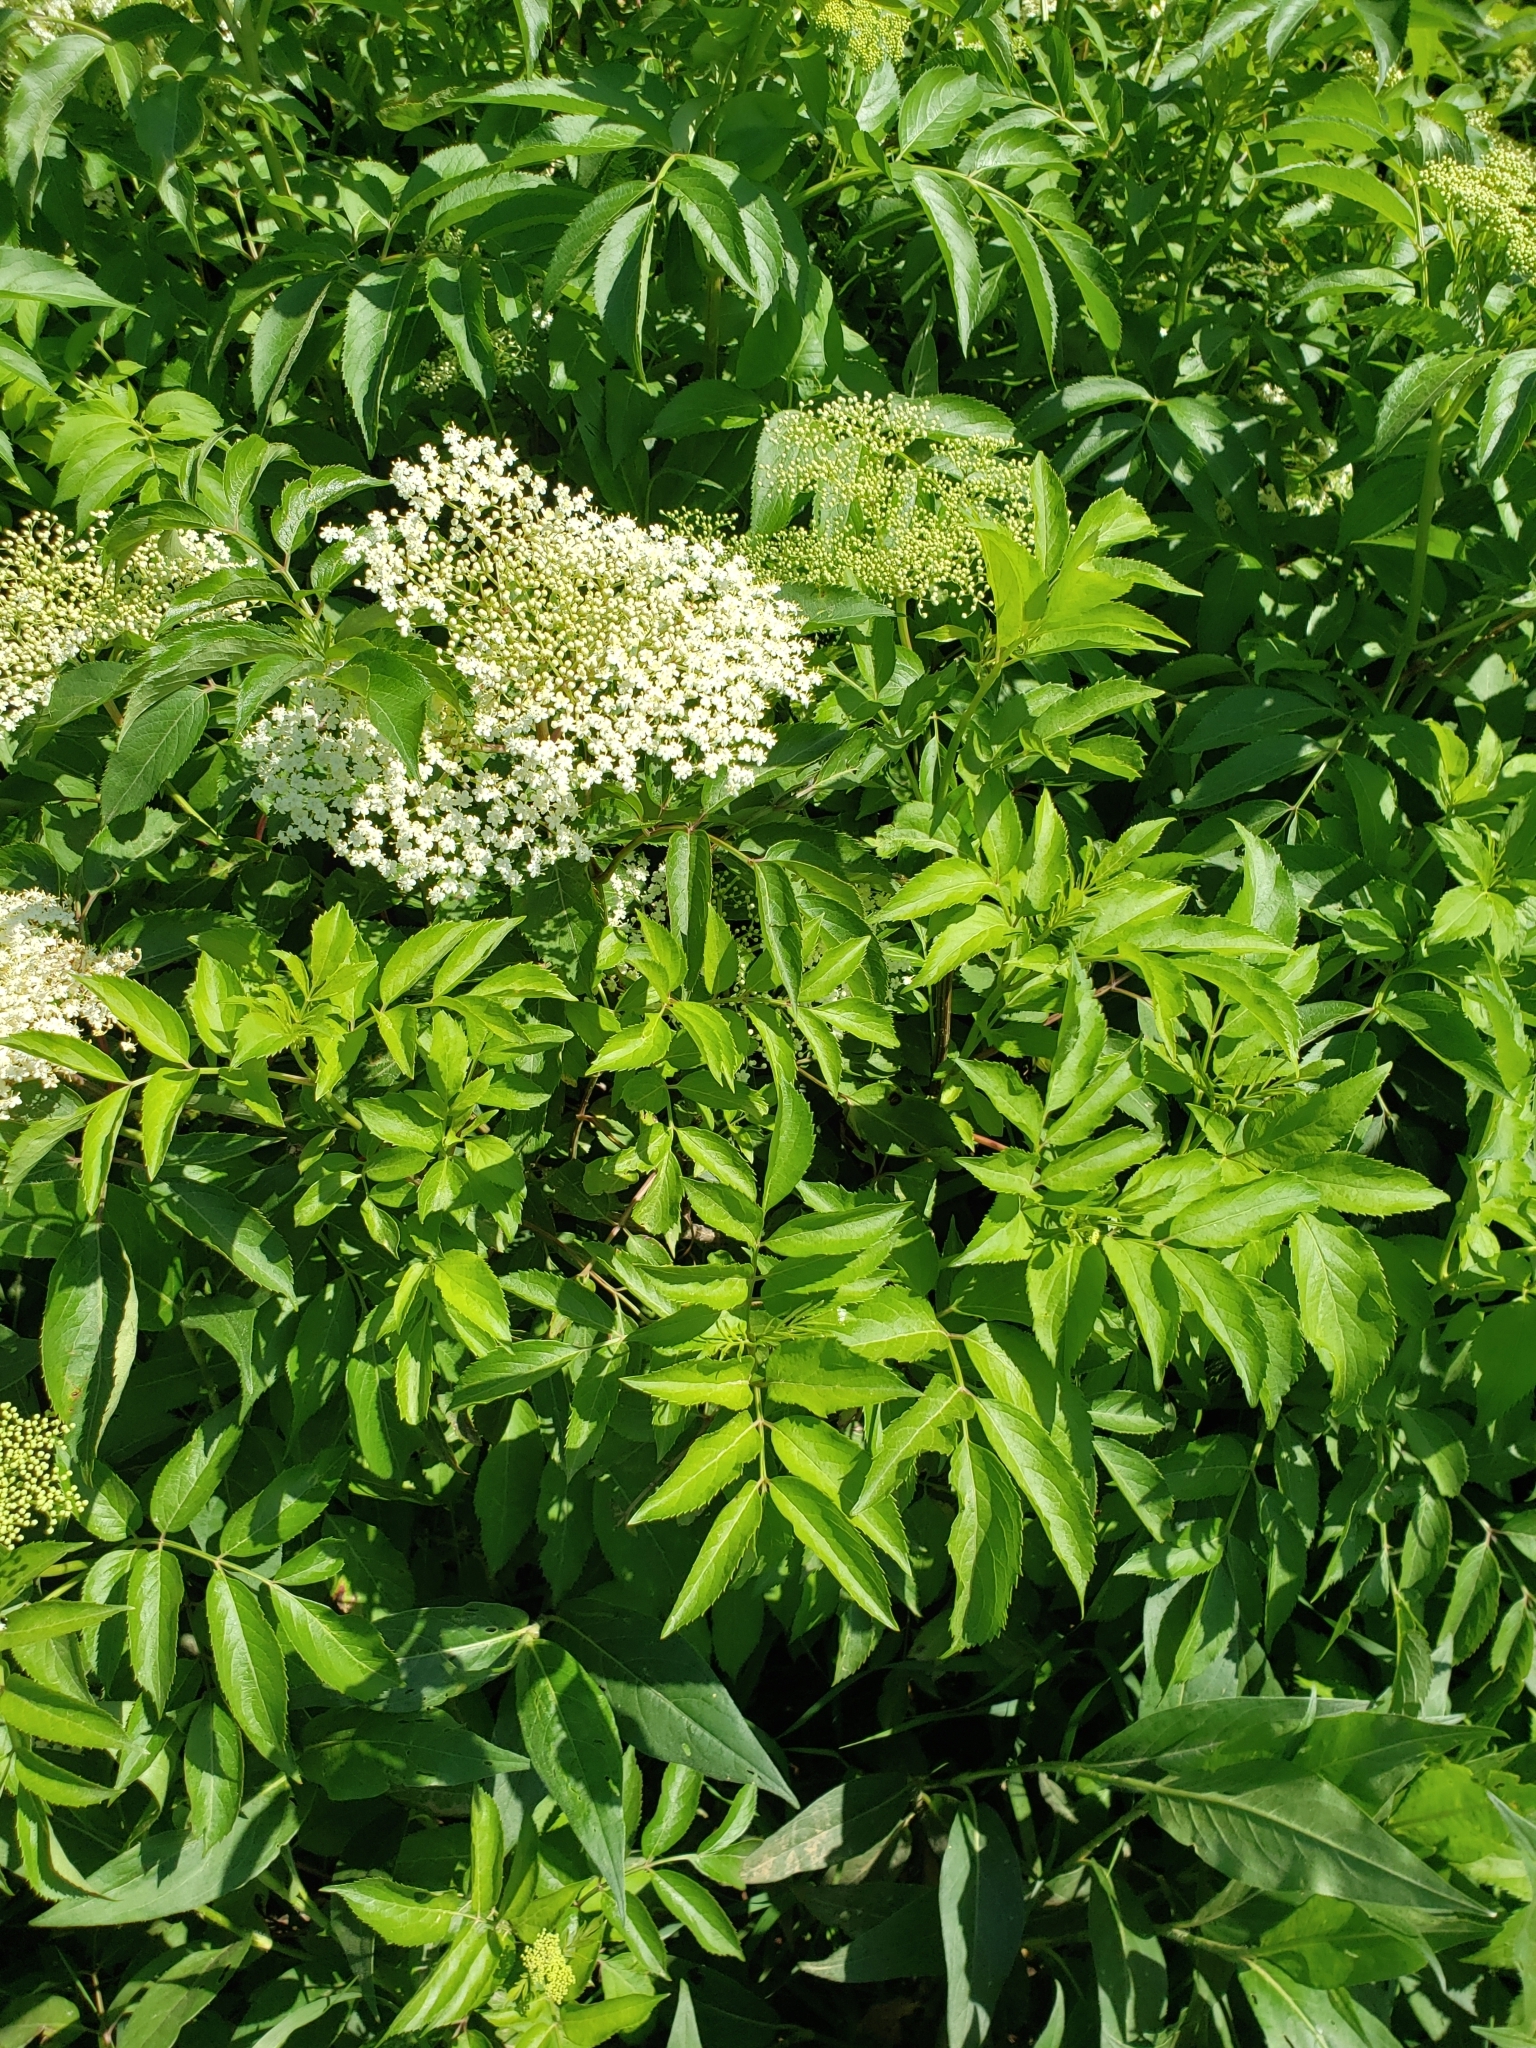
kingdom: Plantae
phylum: Tracheophyta
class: Magnoliopsida
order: Dipsacales
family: Viburnaceae
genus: Sambucus
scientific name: Sambucus canadensis
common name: American elder
